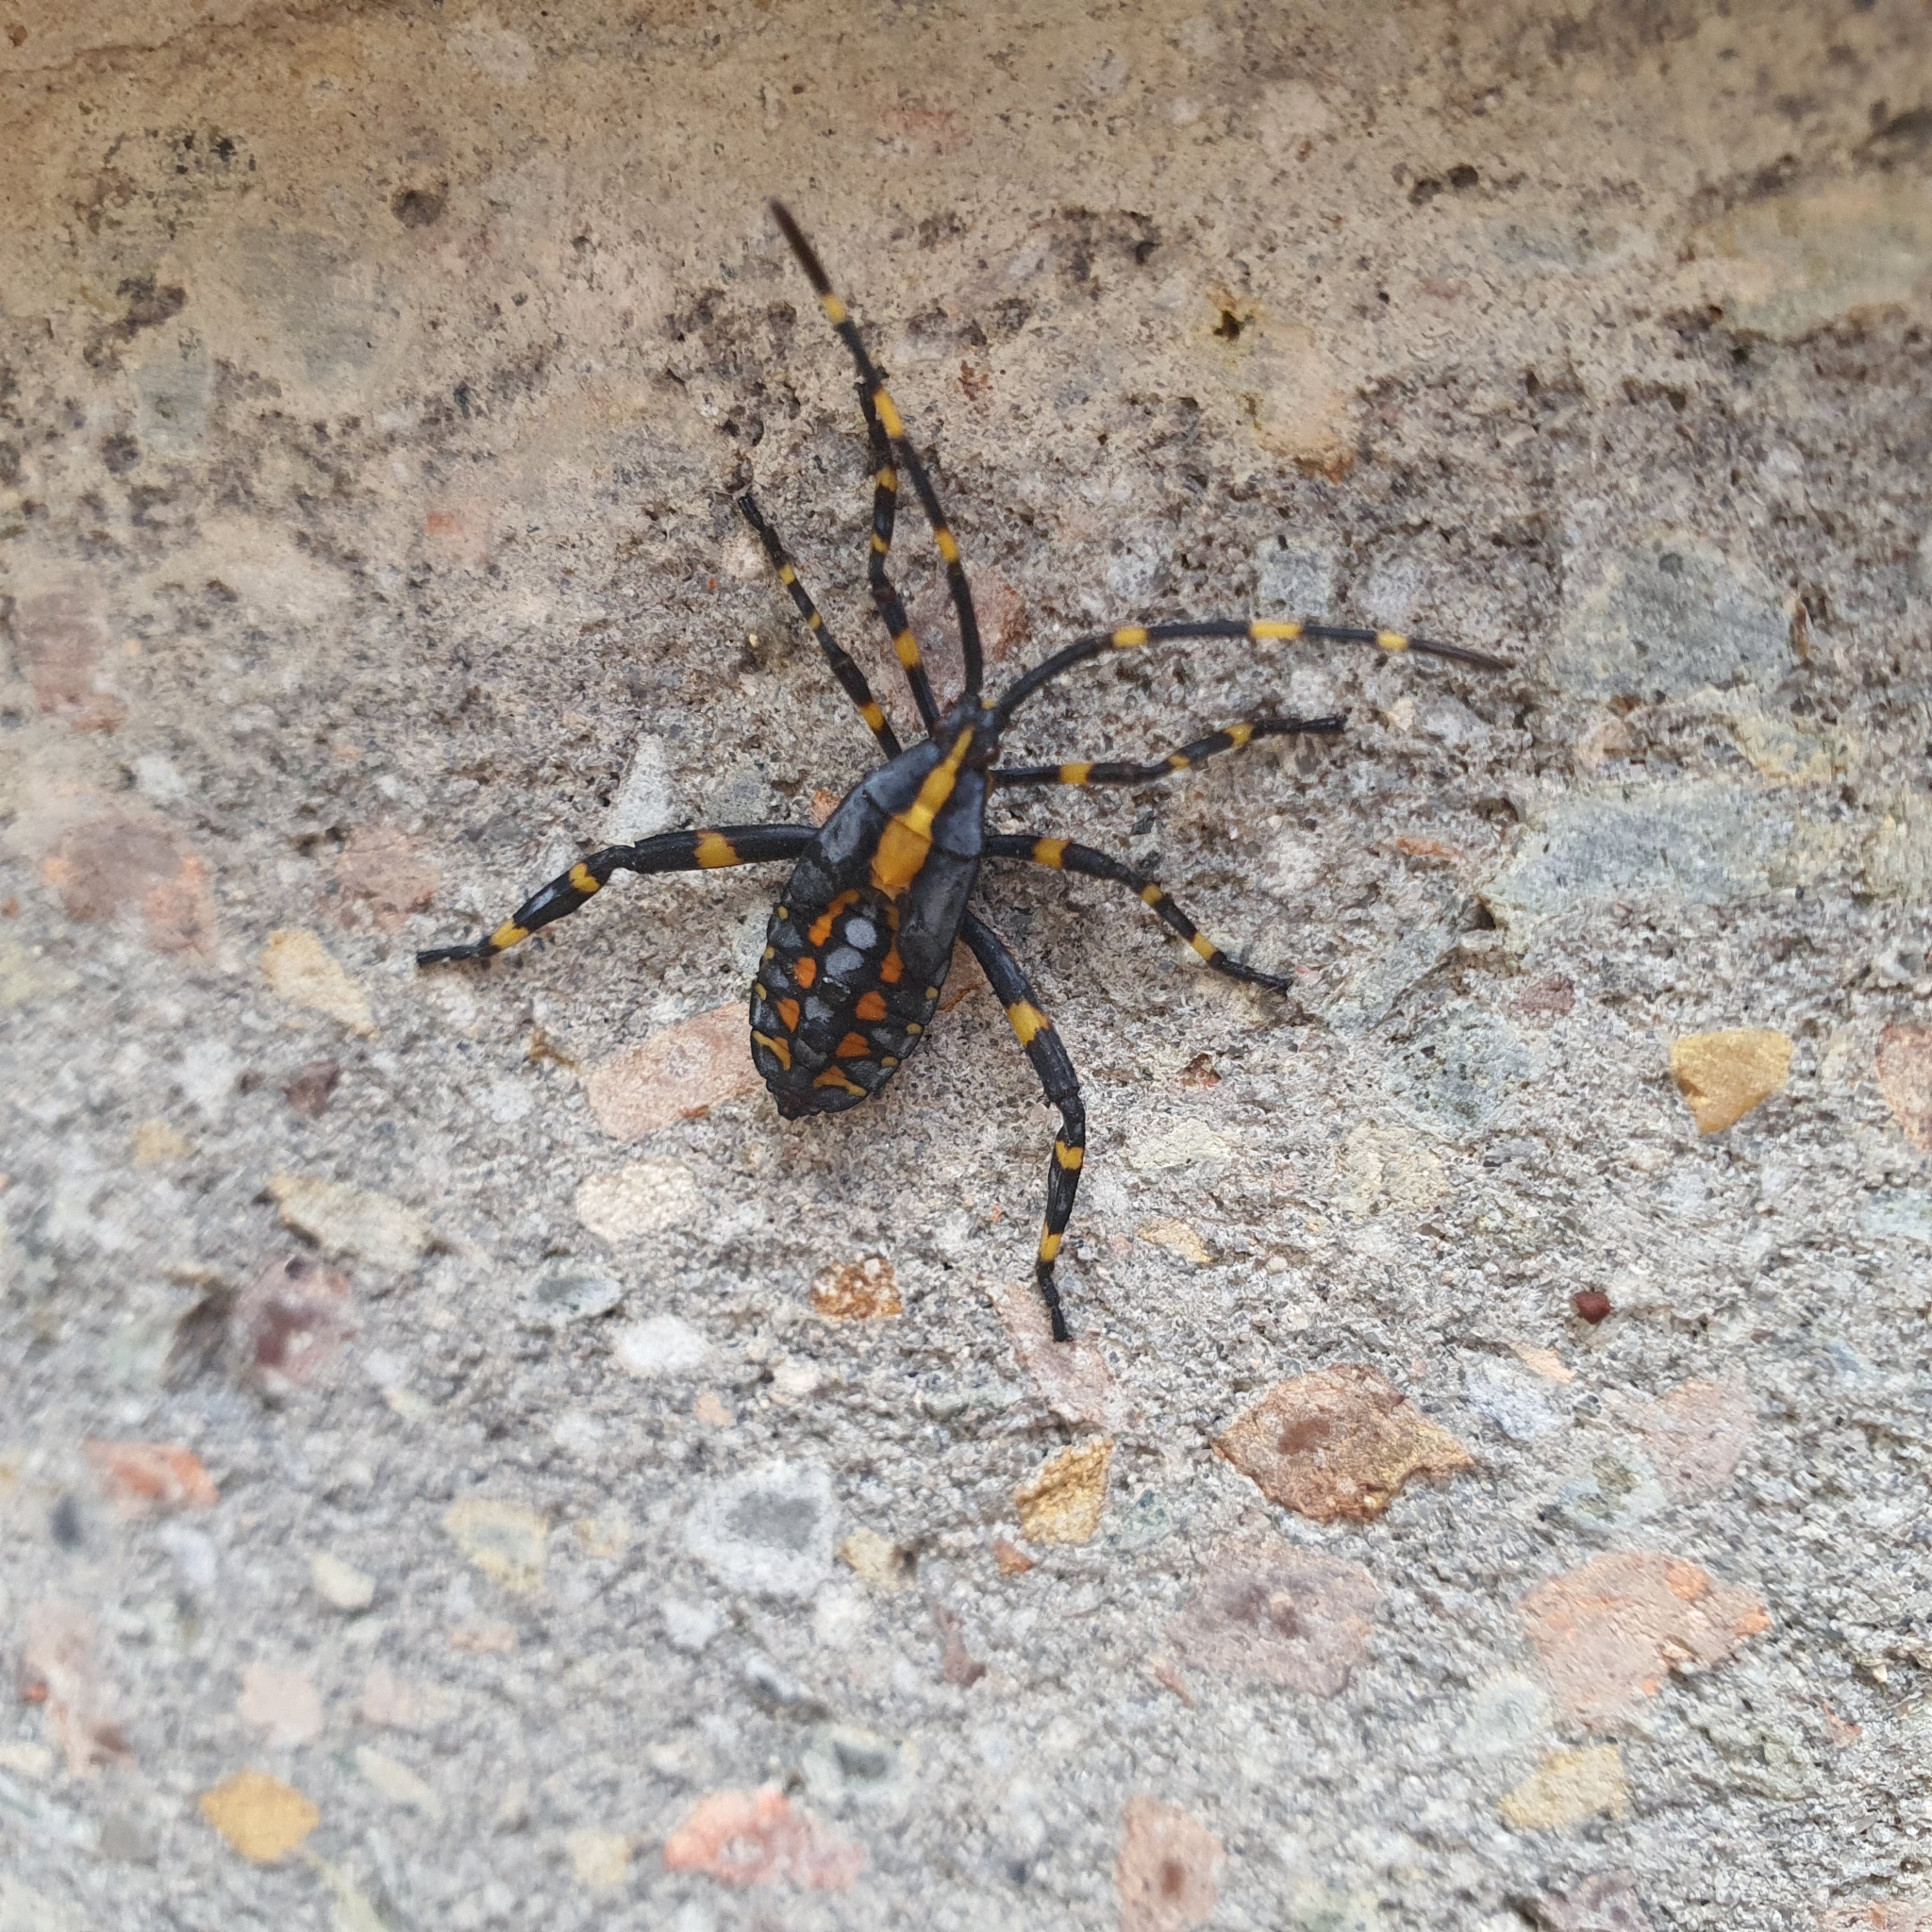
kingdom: Animalia
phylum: Arthropoda
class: Insecta
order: Hemiptera
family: Coreidae
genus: Amorbus
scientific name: Amorbus atomarius
